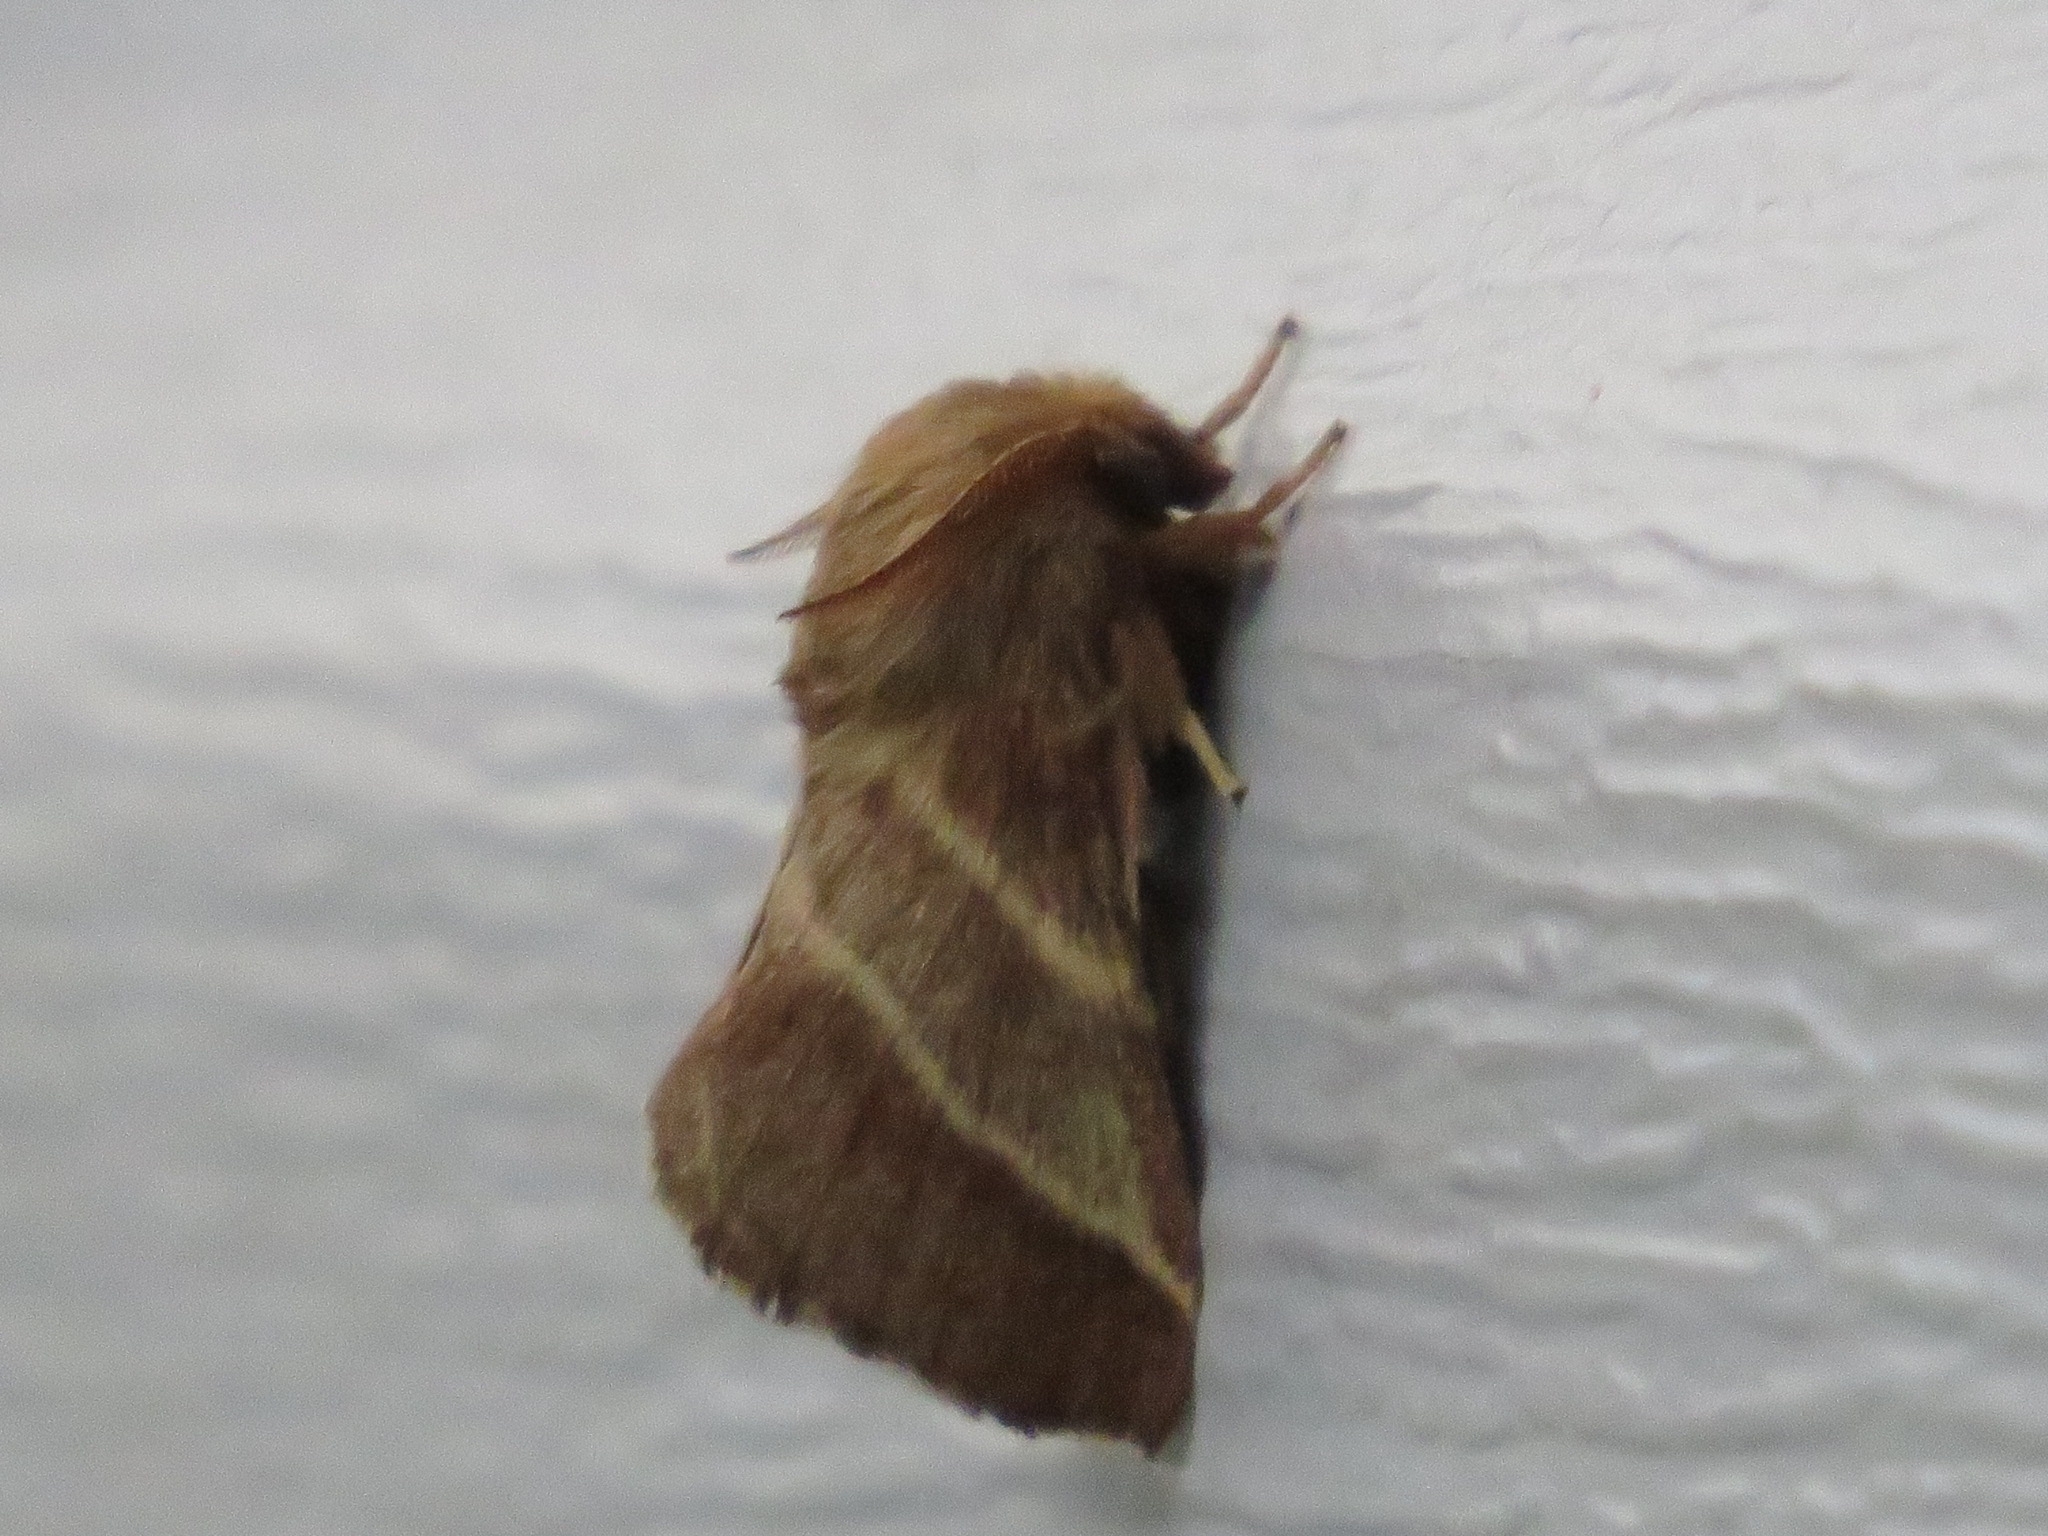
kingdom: Animalia
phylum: Arthropoda
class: Insecta
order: Lepidoptera
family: Lasiocampidae
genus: Malacosoma
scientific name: Malacosoma americana
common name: Eastern tent caterpillar moth
